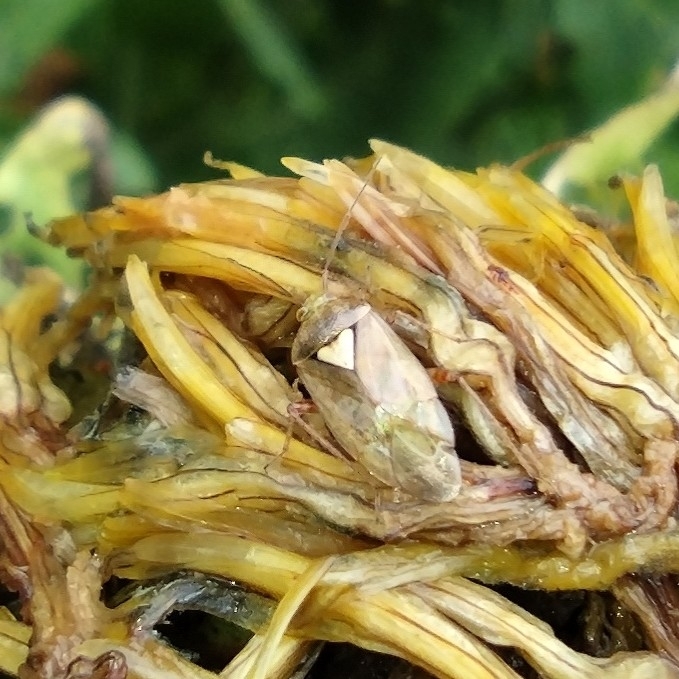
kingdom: Animalia
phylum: Arthropoda
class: Insecta
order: Hemiptera
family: Miridae
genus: Lygus
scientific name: Lygus rugulipennis
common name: European tarnished plant bug
